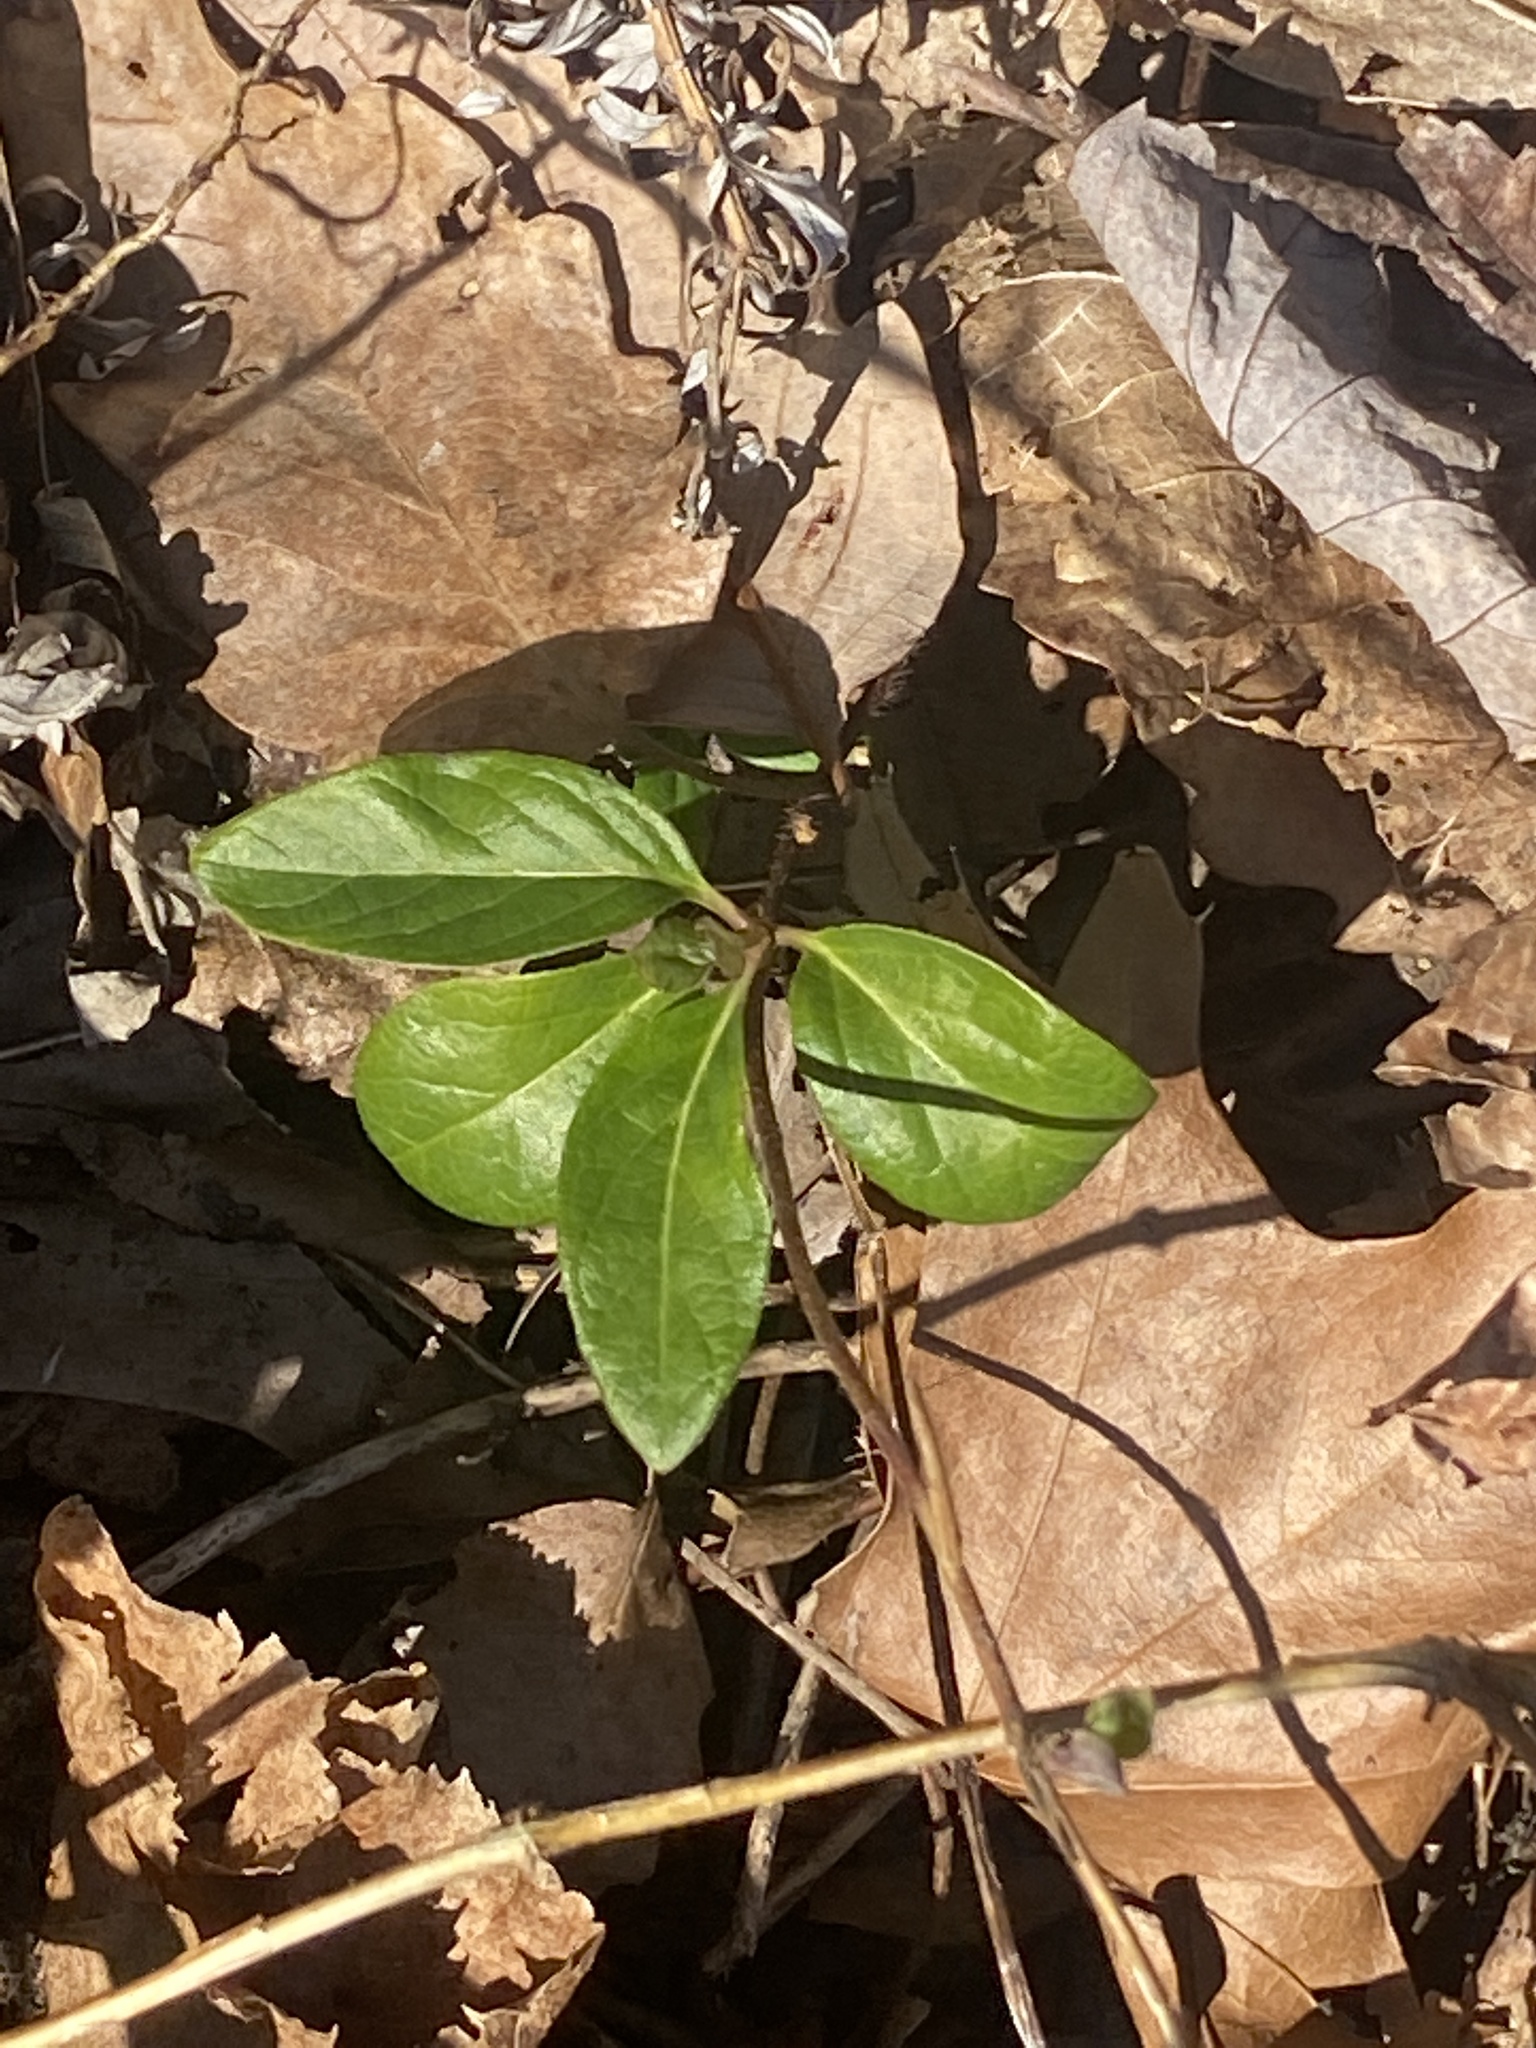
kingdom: Plantae
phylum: Tracheophyta
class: Magnoliopsida
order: Dipsacales
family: Caprifoliaceae
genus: Lonicera
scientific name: Lonicera japonica
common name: Japanese honeysuckle
